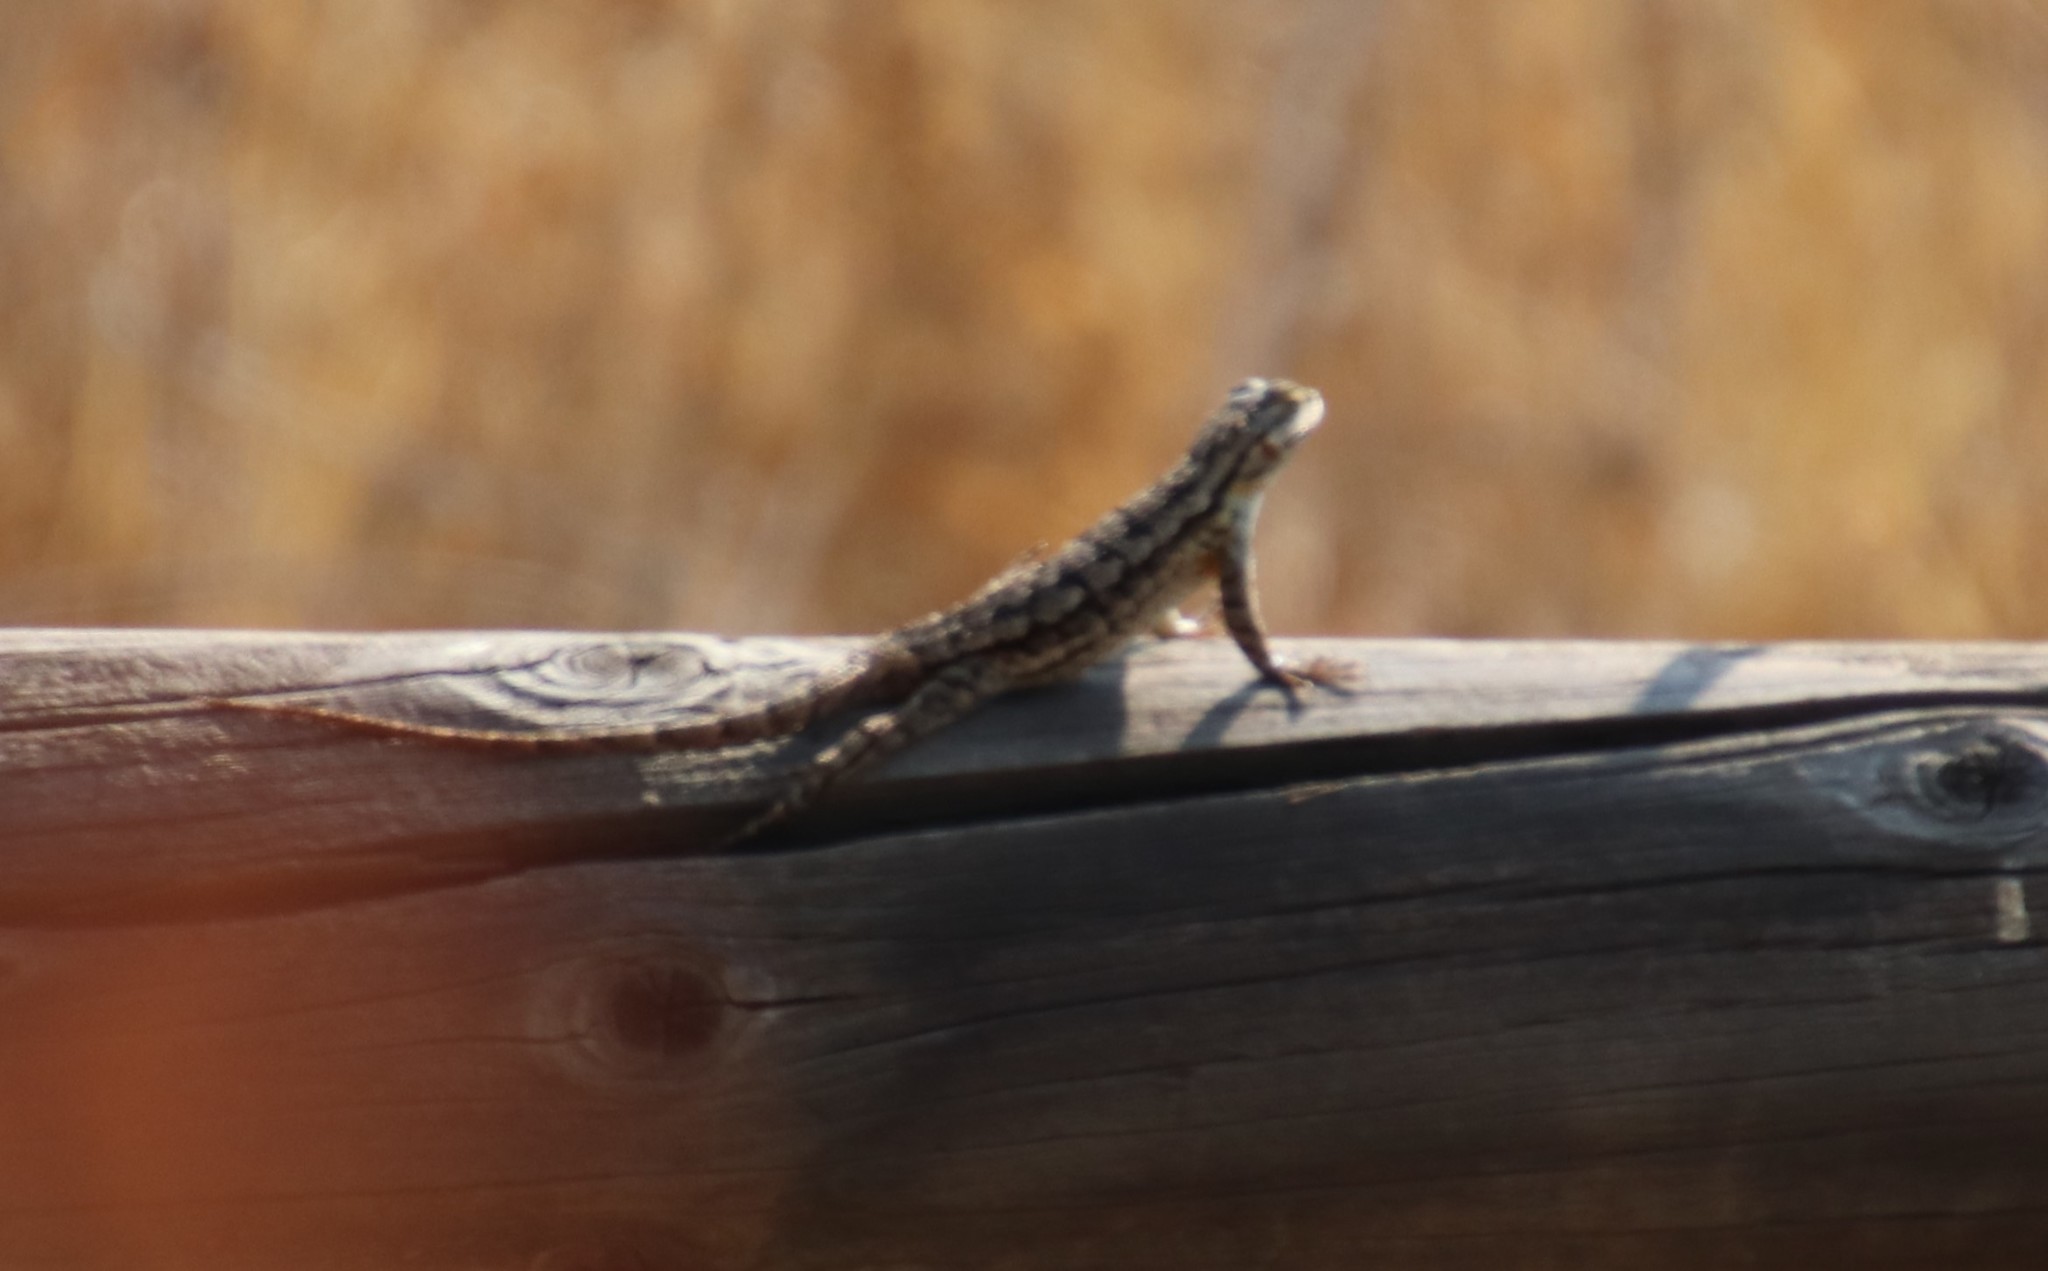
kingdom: Animalia
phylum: Chordata
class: Squamata
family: Phrynosomatidae
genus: Sceloporus
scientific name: Sceloporus occidentalis
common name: Western fence lizard
